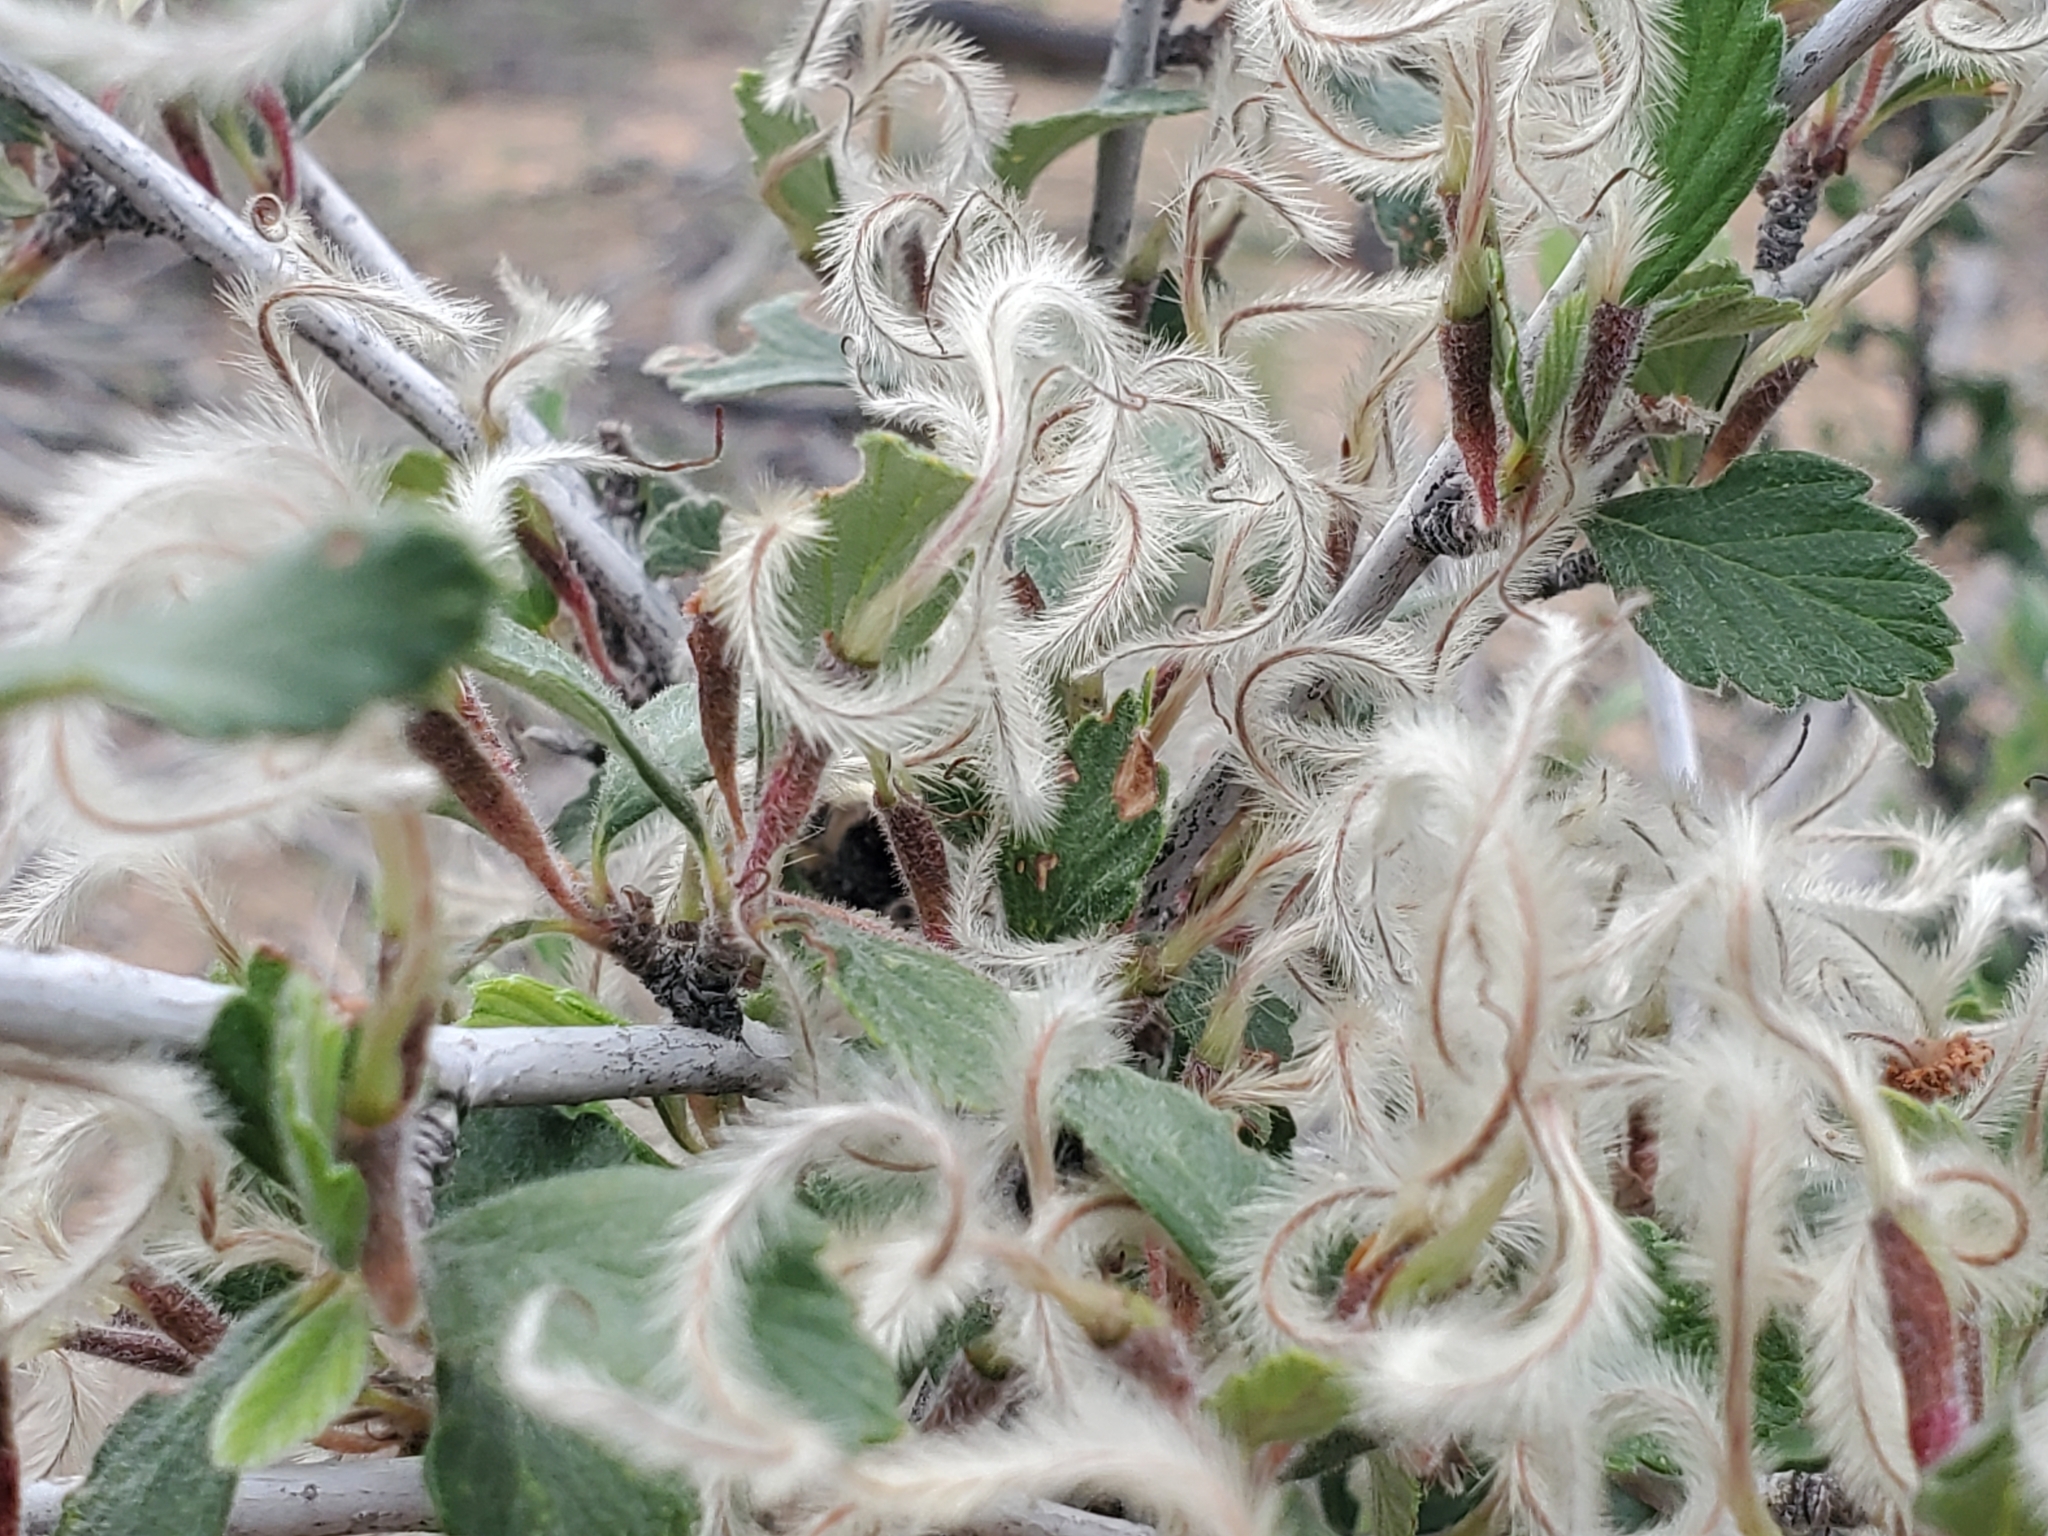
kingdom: Plantae
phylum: Tracheophyta
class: Magnoliopsida
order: Rosales
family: Rosaceae
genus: Cercocarpus
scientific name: Cercocarpus montanus
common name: Alder-leaf cercocarpus
